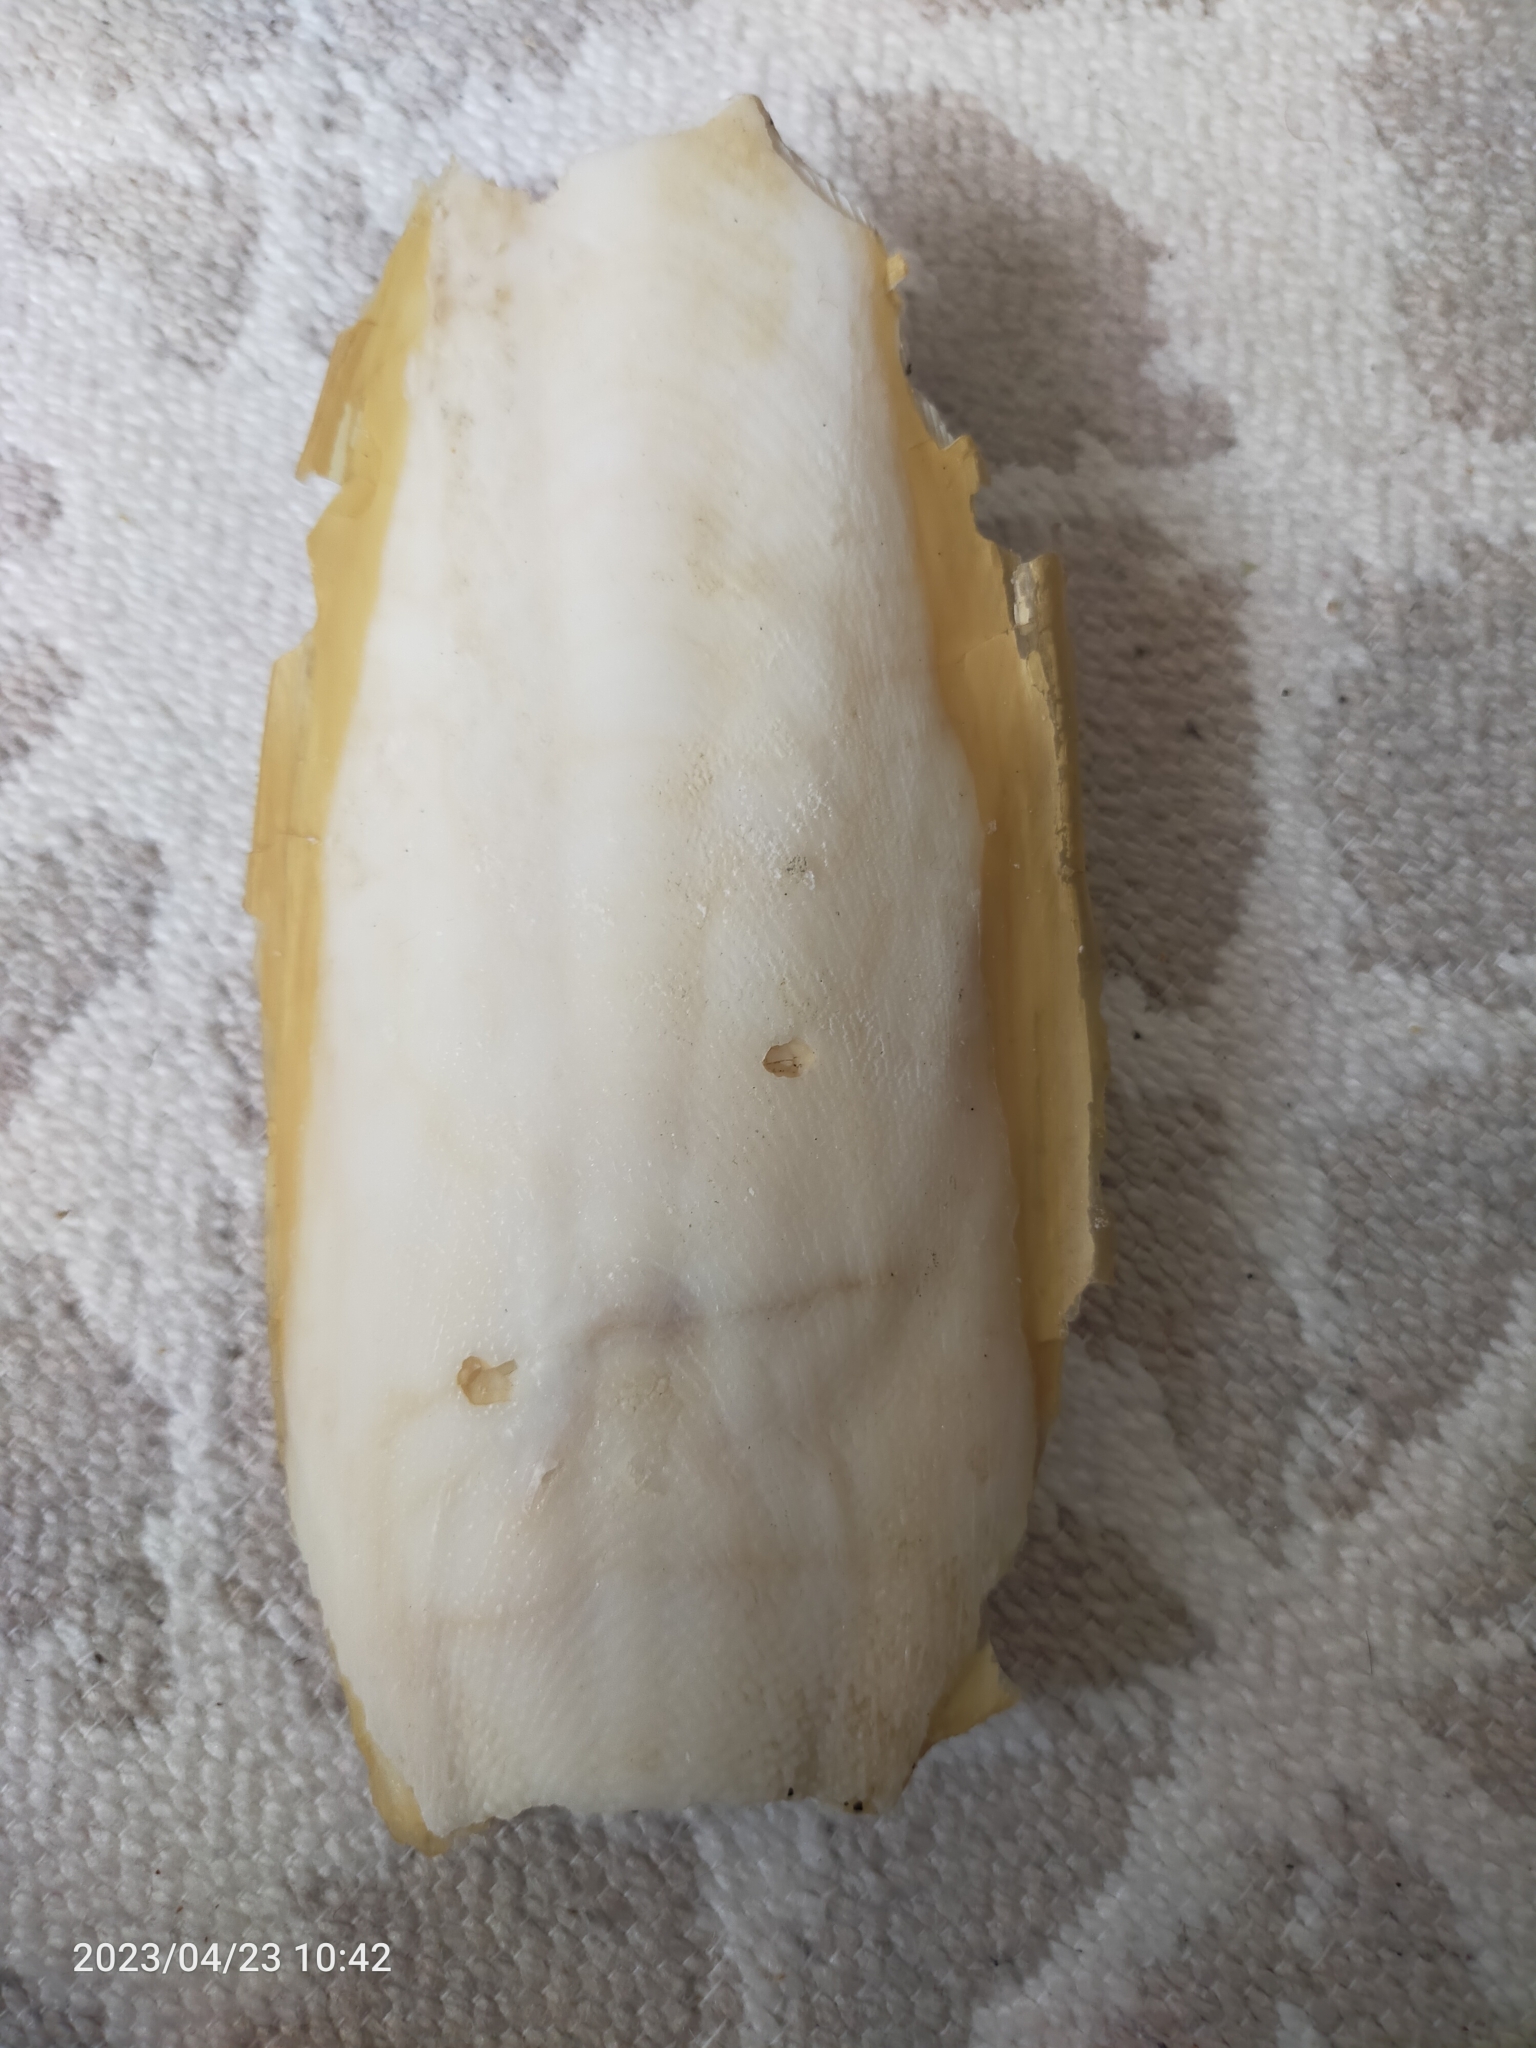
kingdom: Animalia
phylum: Mollusca
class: Cephalopoda
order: Sepiida
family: Sepiidae
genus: Sepia
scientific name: Sepia officinalis
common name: Common cuttlefish
